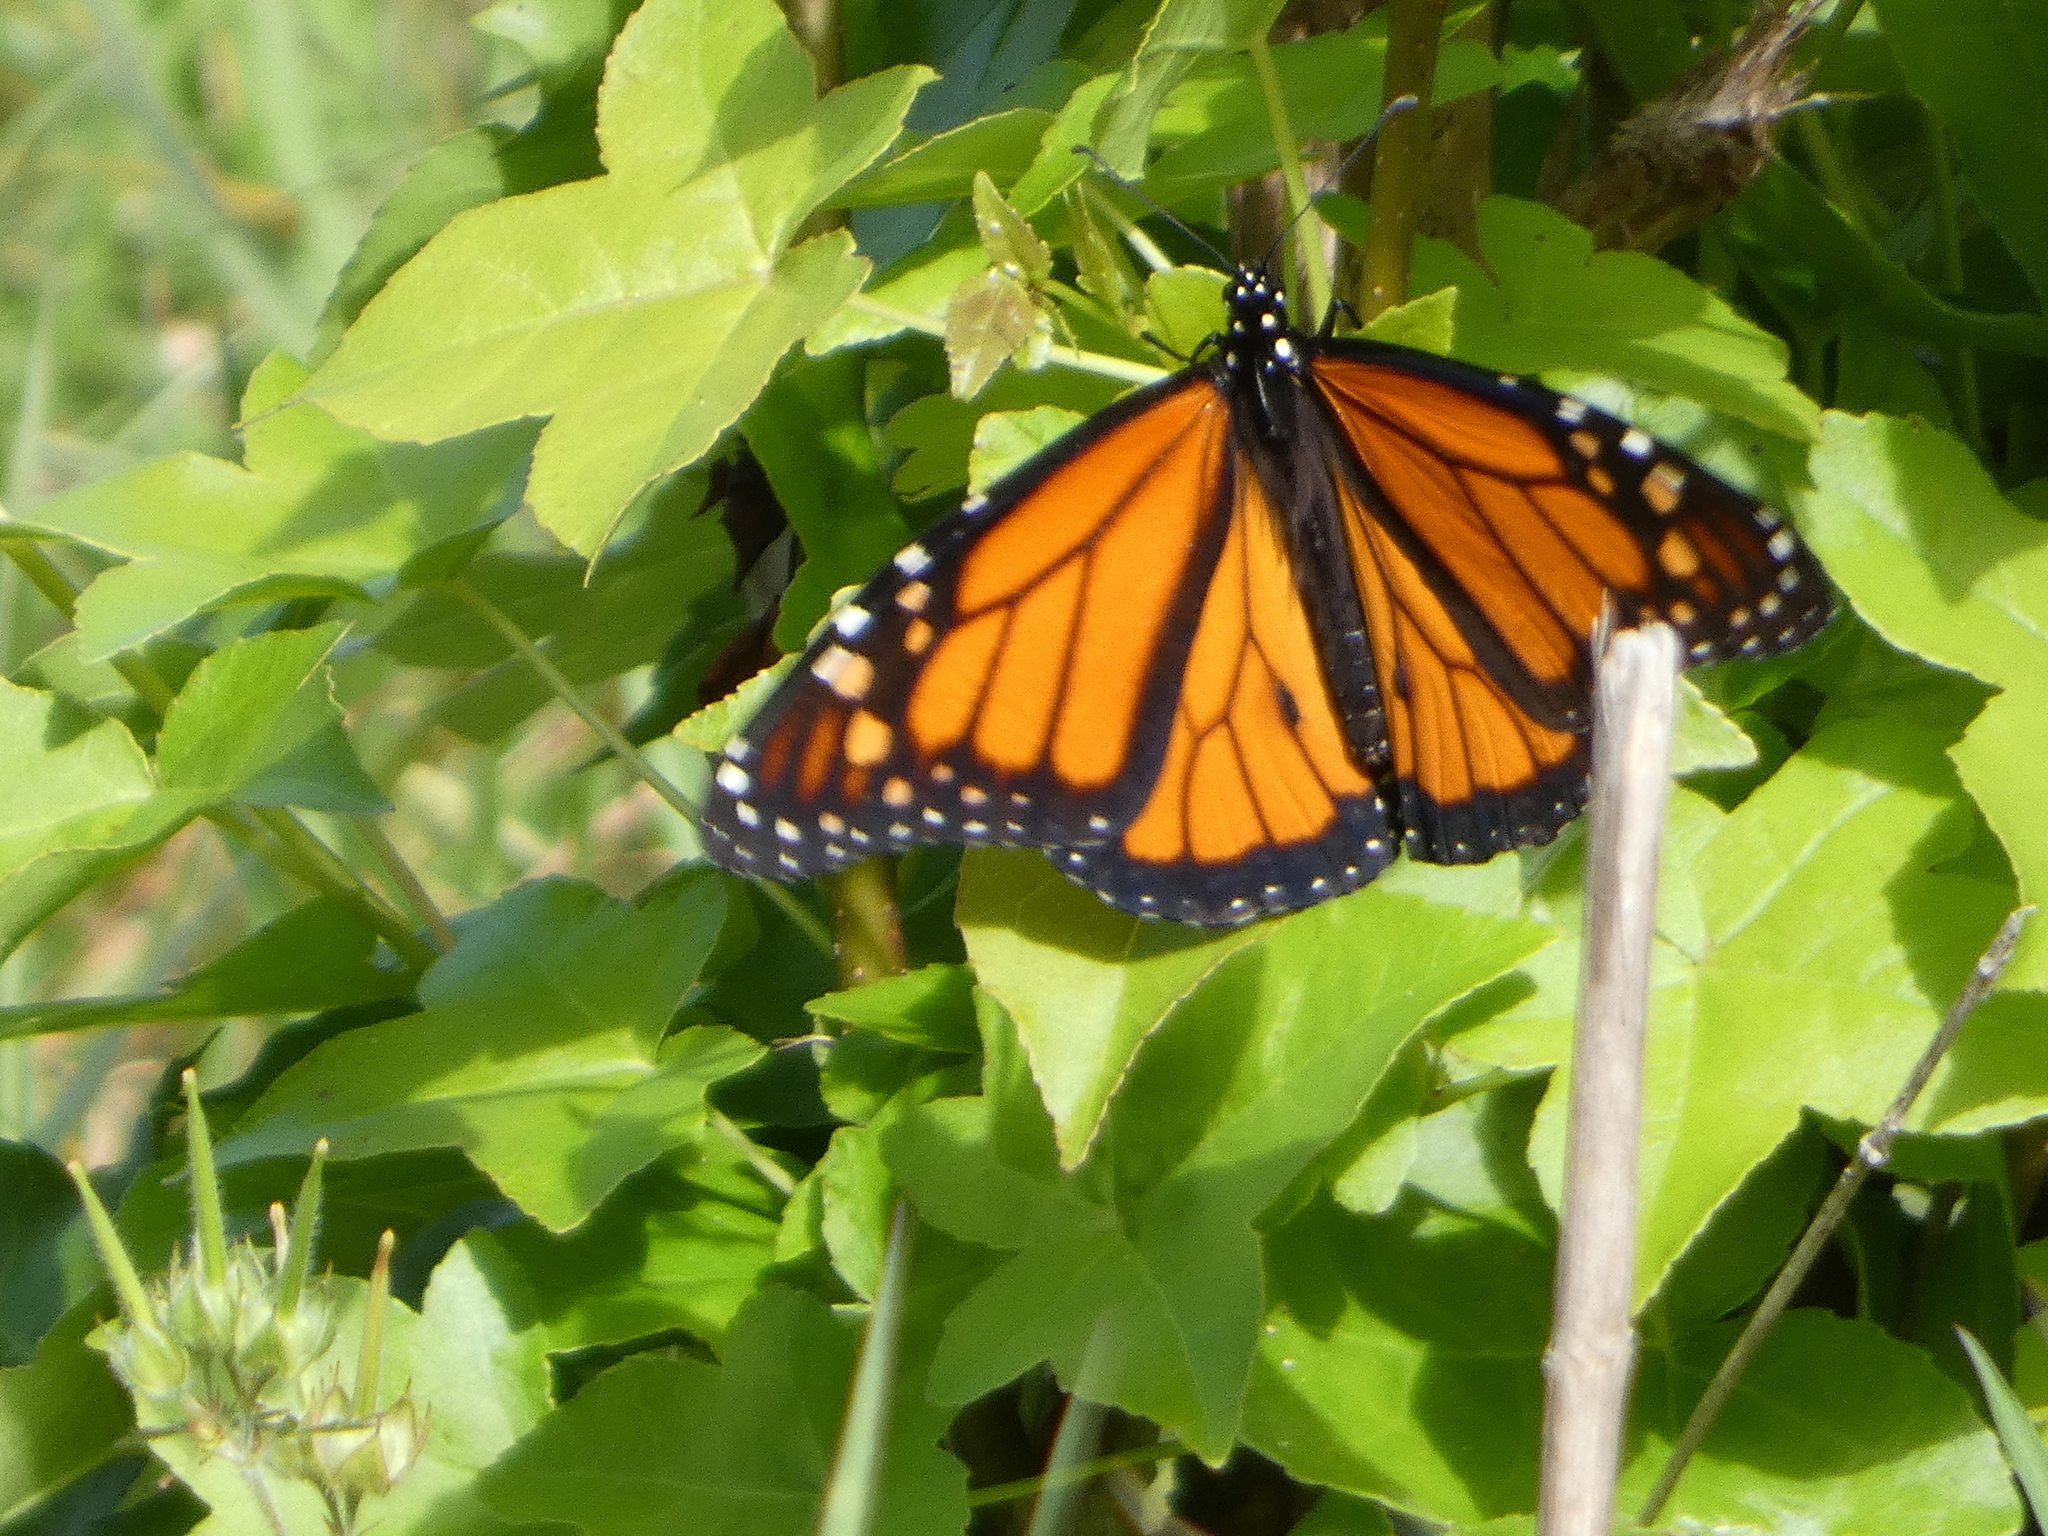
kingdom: Animalia
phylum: Arthropoda
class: Insecta
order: Lepidoptera
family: Nymphalidae
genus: Danaus
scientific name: Danaus plexippus
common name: Monarch
